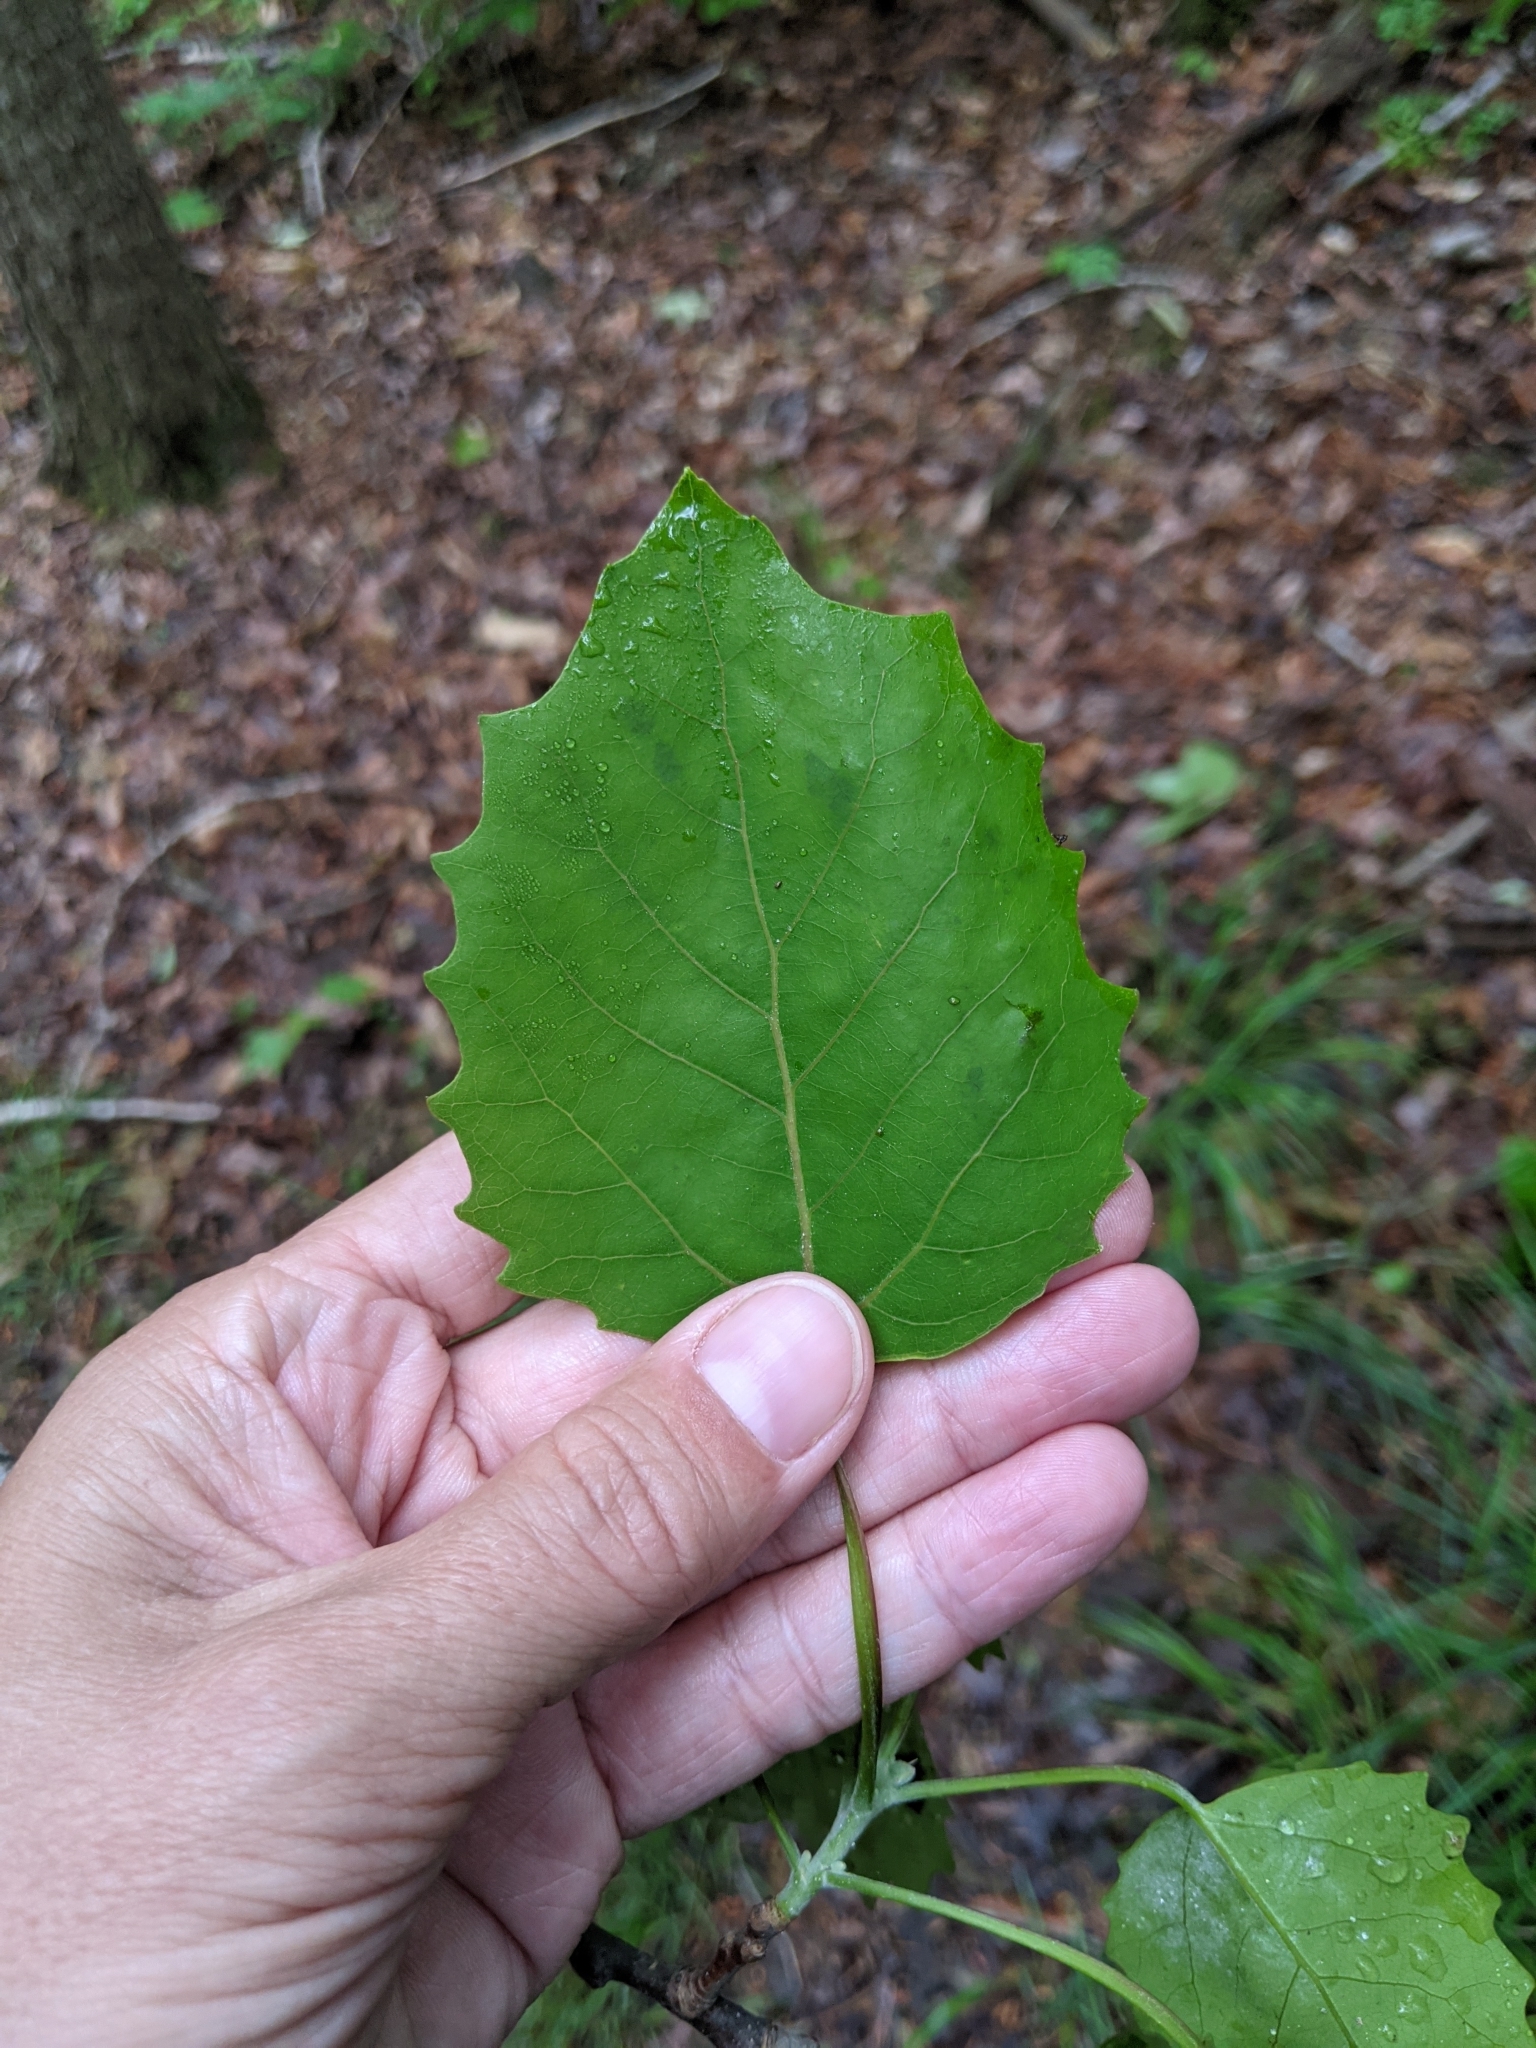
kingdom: Plantae
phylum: Tracheophyta
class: Magnoliopsida
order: Malpighiales
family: Salicaceae
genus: Populus
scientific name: Populus grandidentata
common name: Bigtooth aspen
